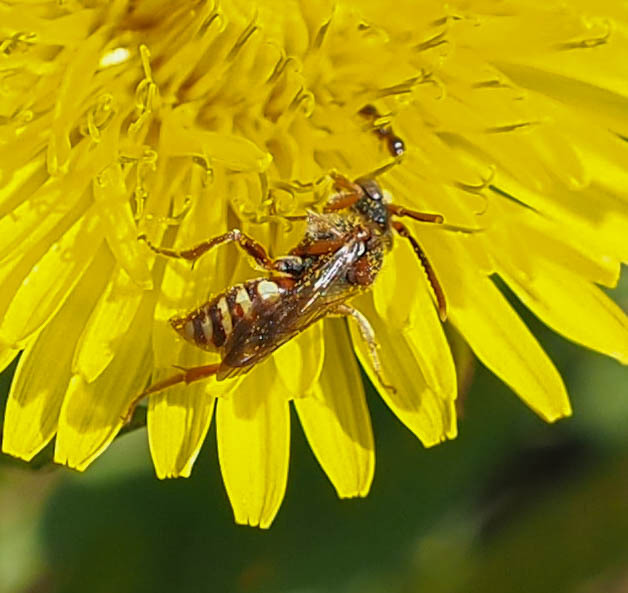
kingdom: Animalia
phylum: Arthropoda
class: Insecta
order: Hymenoptera
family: Apidae
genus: Nomada
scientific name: Nomada denticulata
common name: Denticulate nomad
